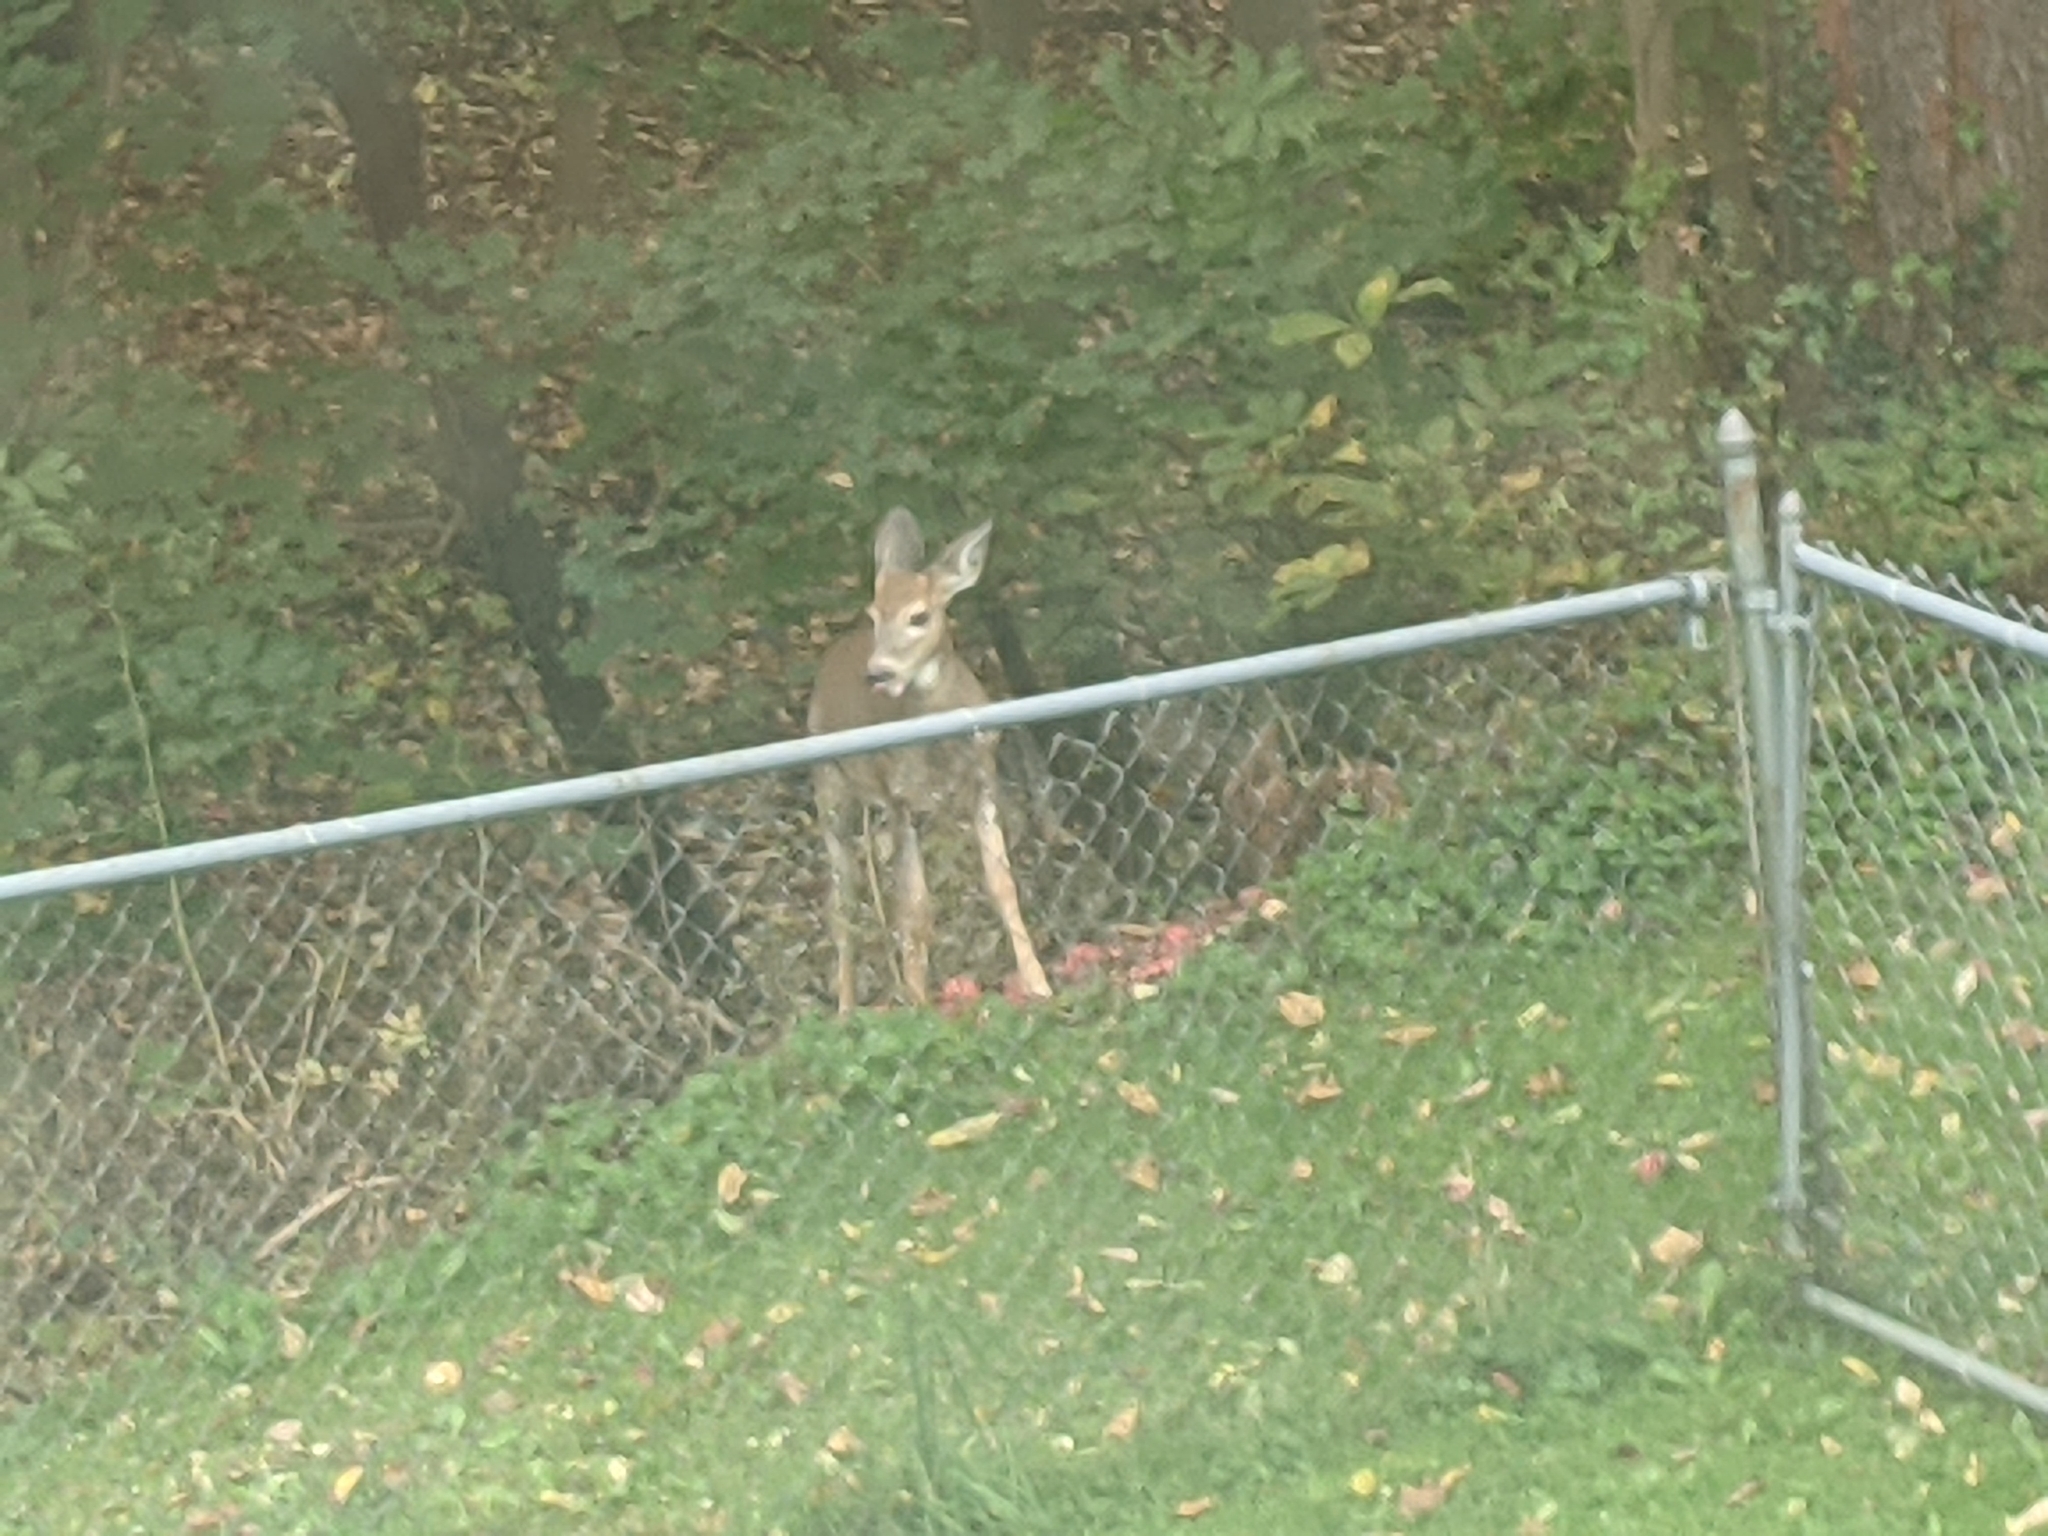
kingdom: Animalia
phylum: Chordata
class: Mammalia
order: Artiodactyla
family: Cervidae
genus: Odocoileus
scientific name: Odocoileus virginianus
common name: White-tailed deer
